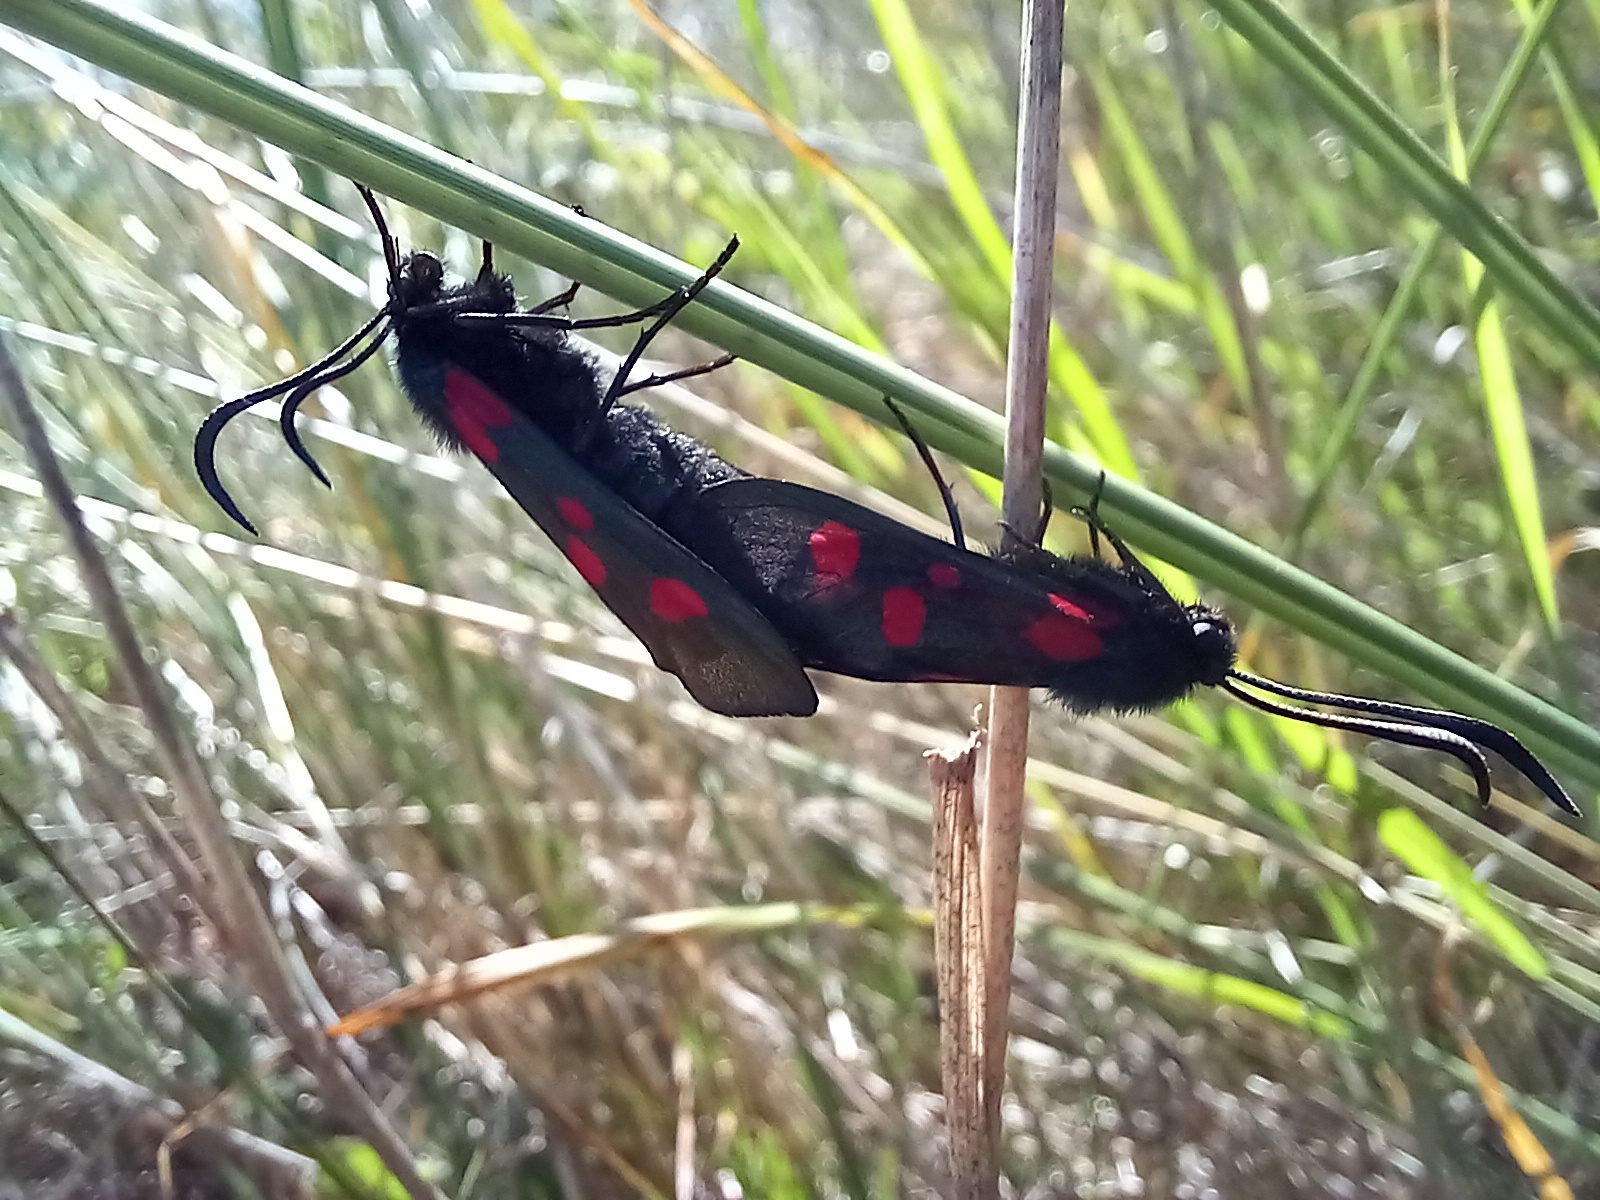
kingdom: Animalia
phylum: Arthropoda
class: Insecta
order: Lepidoptera
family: Zygaenidae
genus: Zygaena
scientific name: Zygaena lonicerae
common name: Narrow-bordered five-spot burnet
